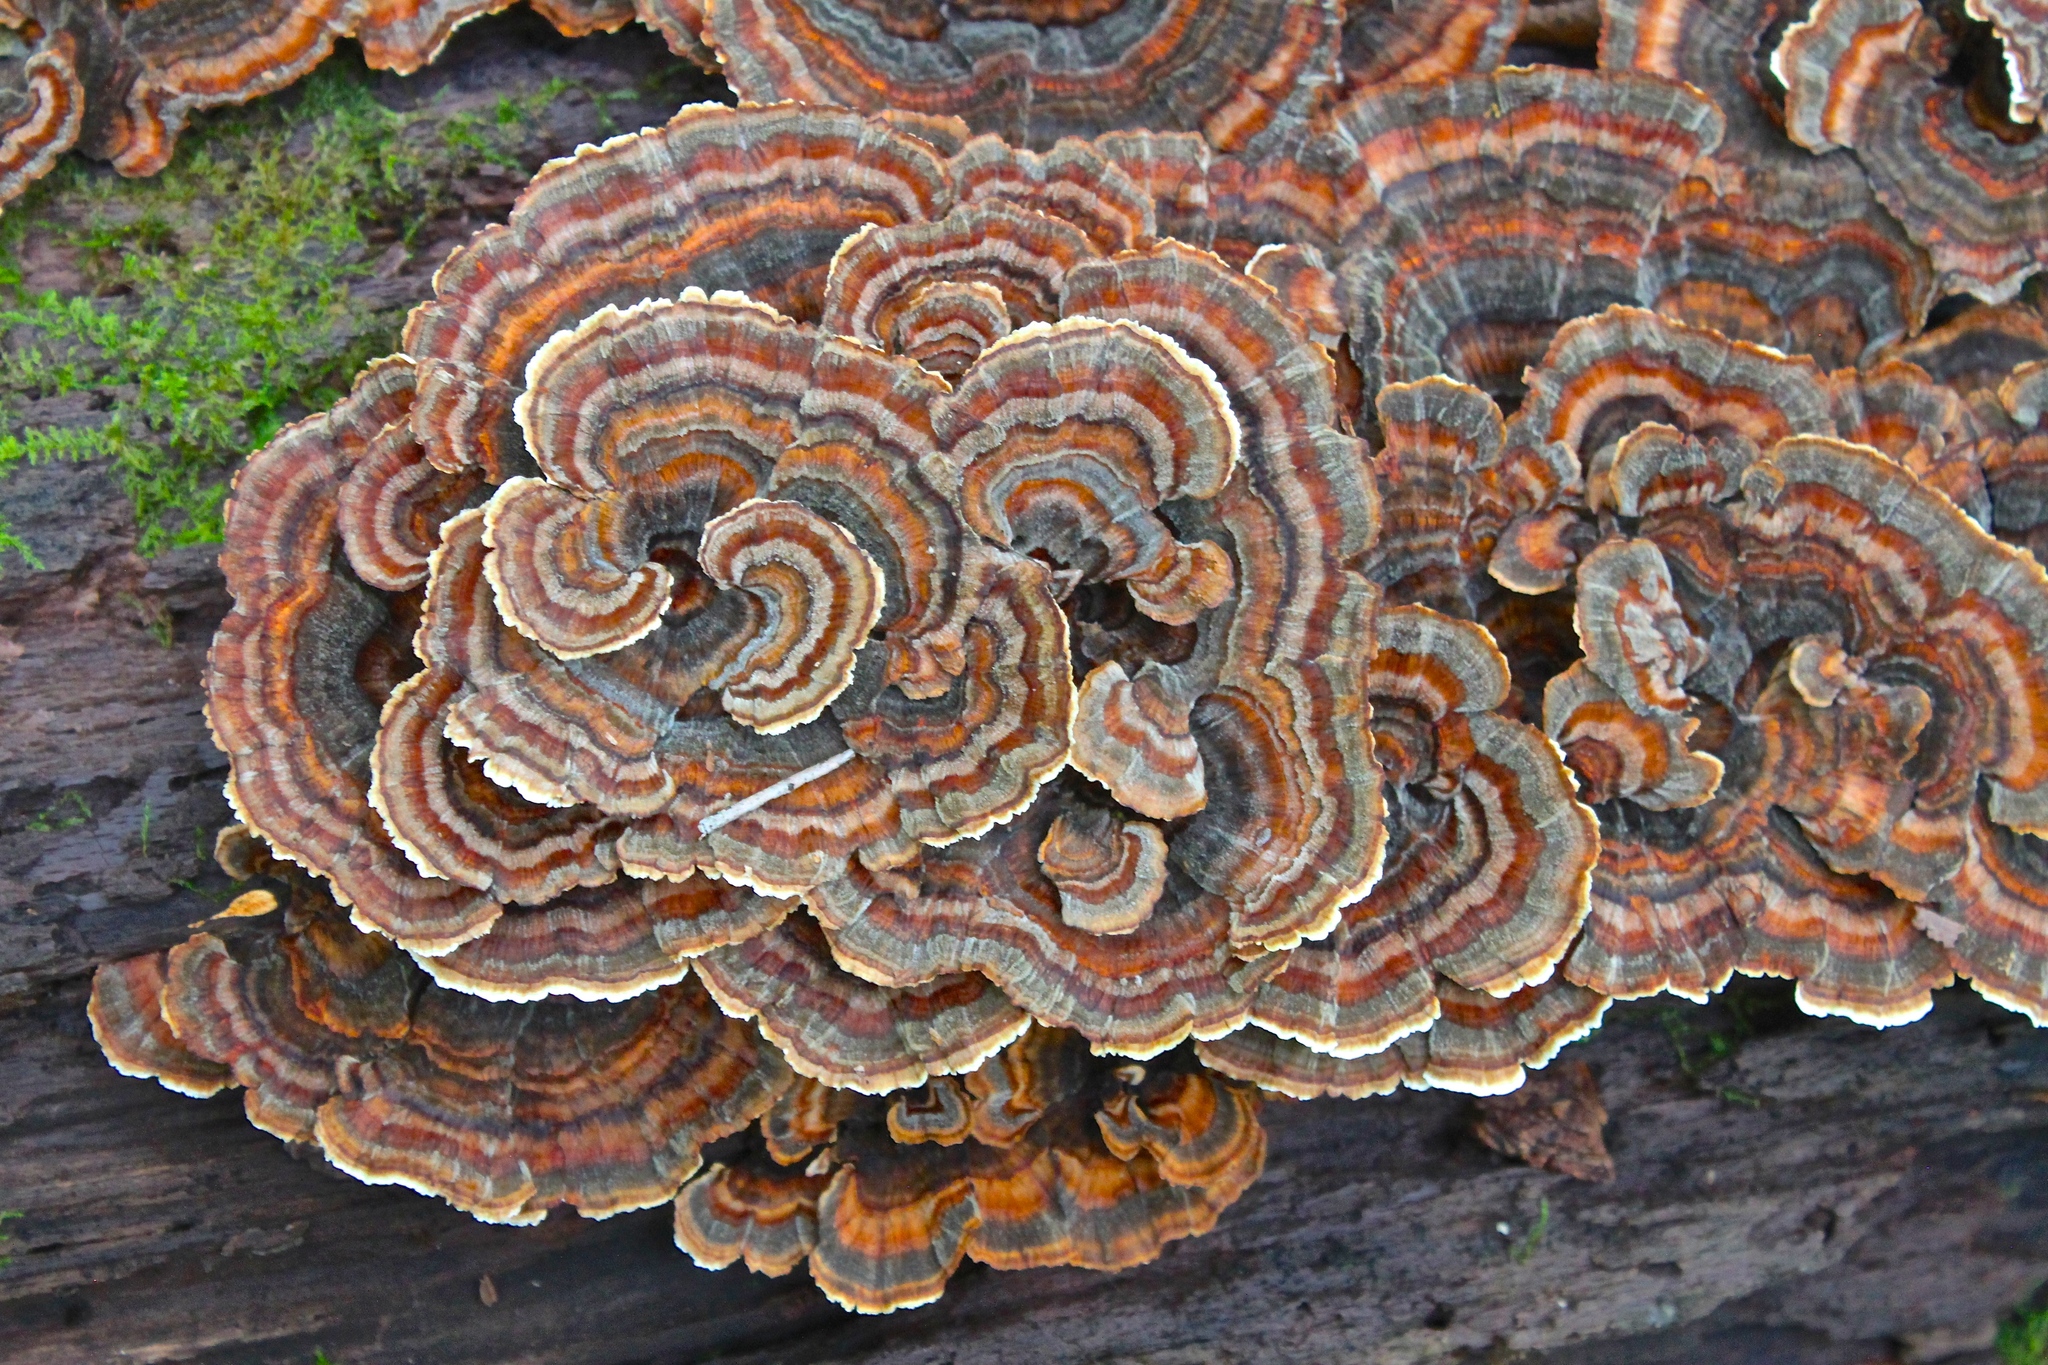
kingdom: Fungi
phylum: Basidiomycota
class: Agaricomycetes
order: Polyporales
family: Polyporaceae
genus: Trametes
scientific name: Trametes versicolor
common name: Turkeytail
